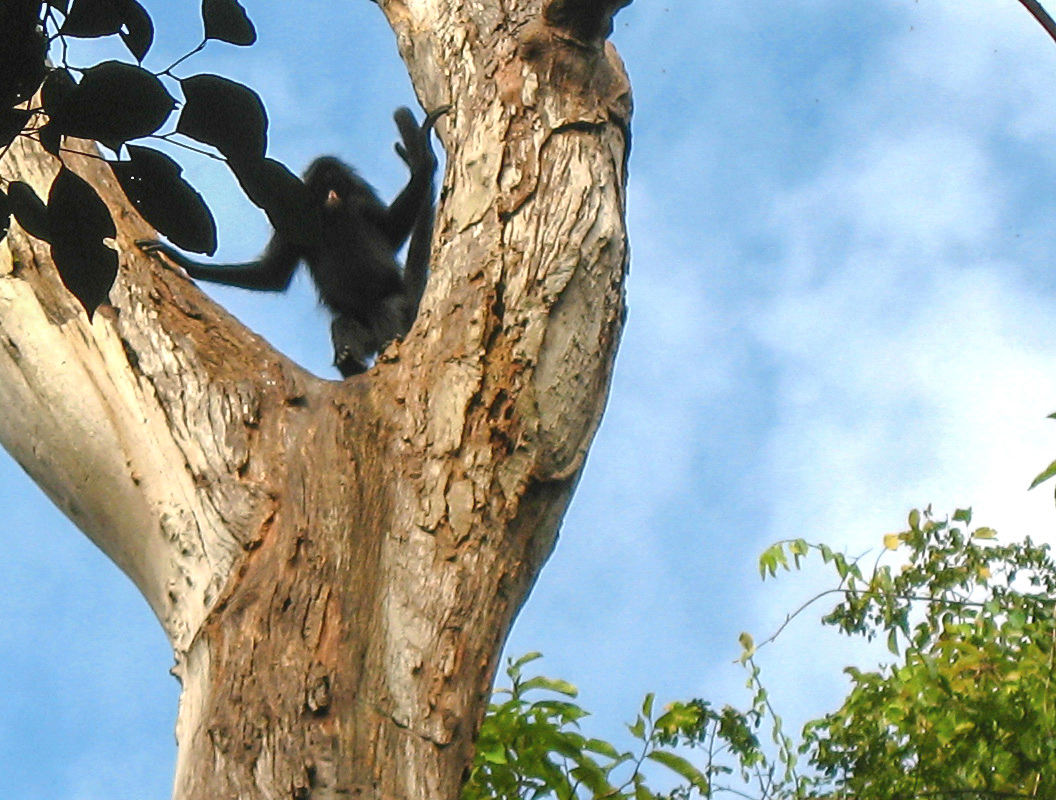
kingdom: Animalia
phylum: Chordata
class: Mammalia
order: Primates
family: Atelidae
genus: Ateles
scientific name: Ateles chamek
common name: Peruvian spider monkey
